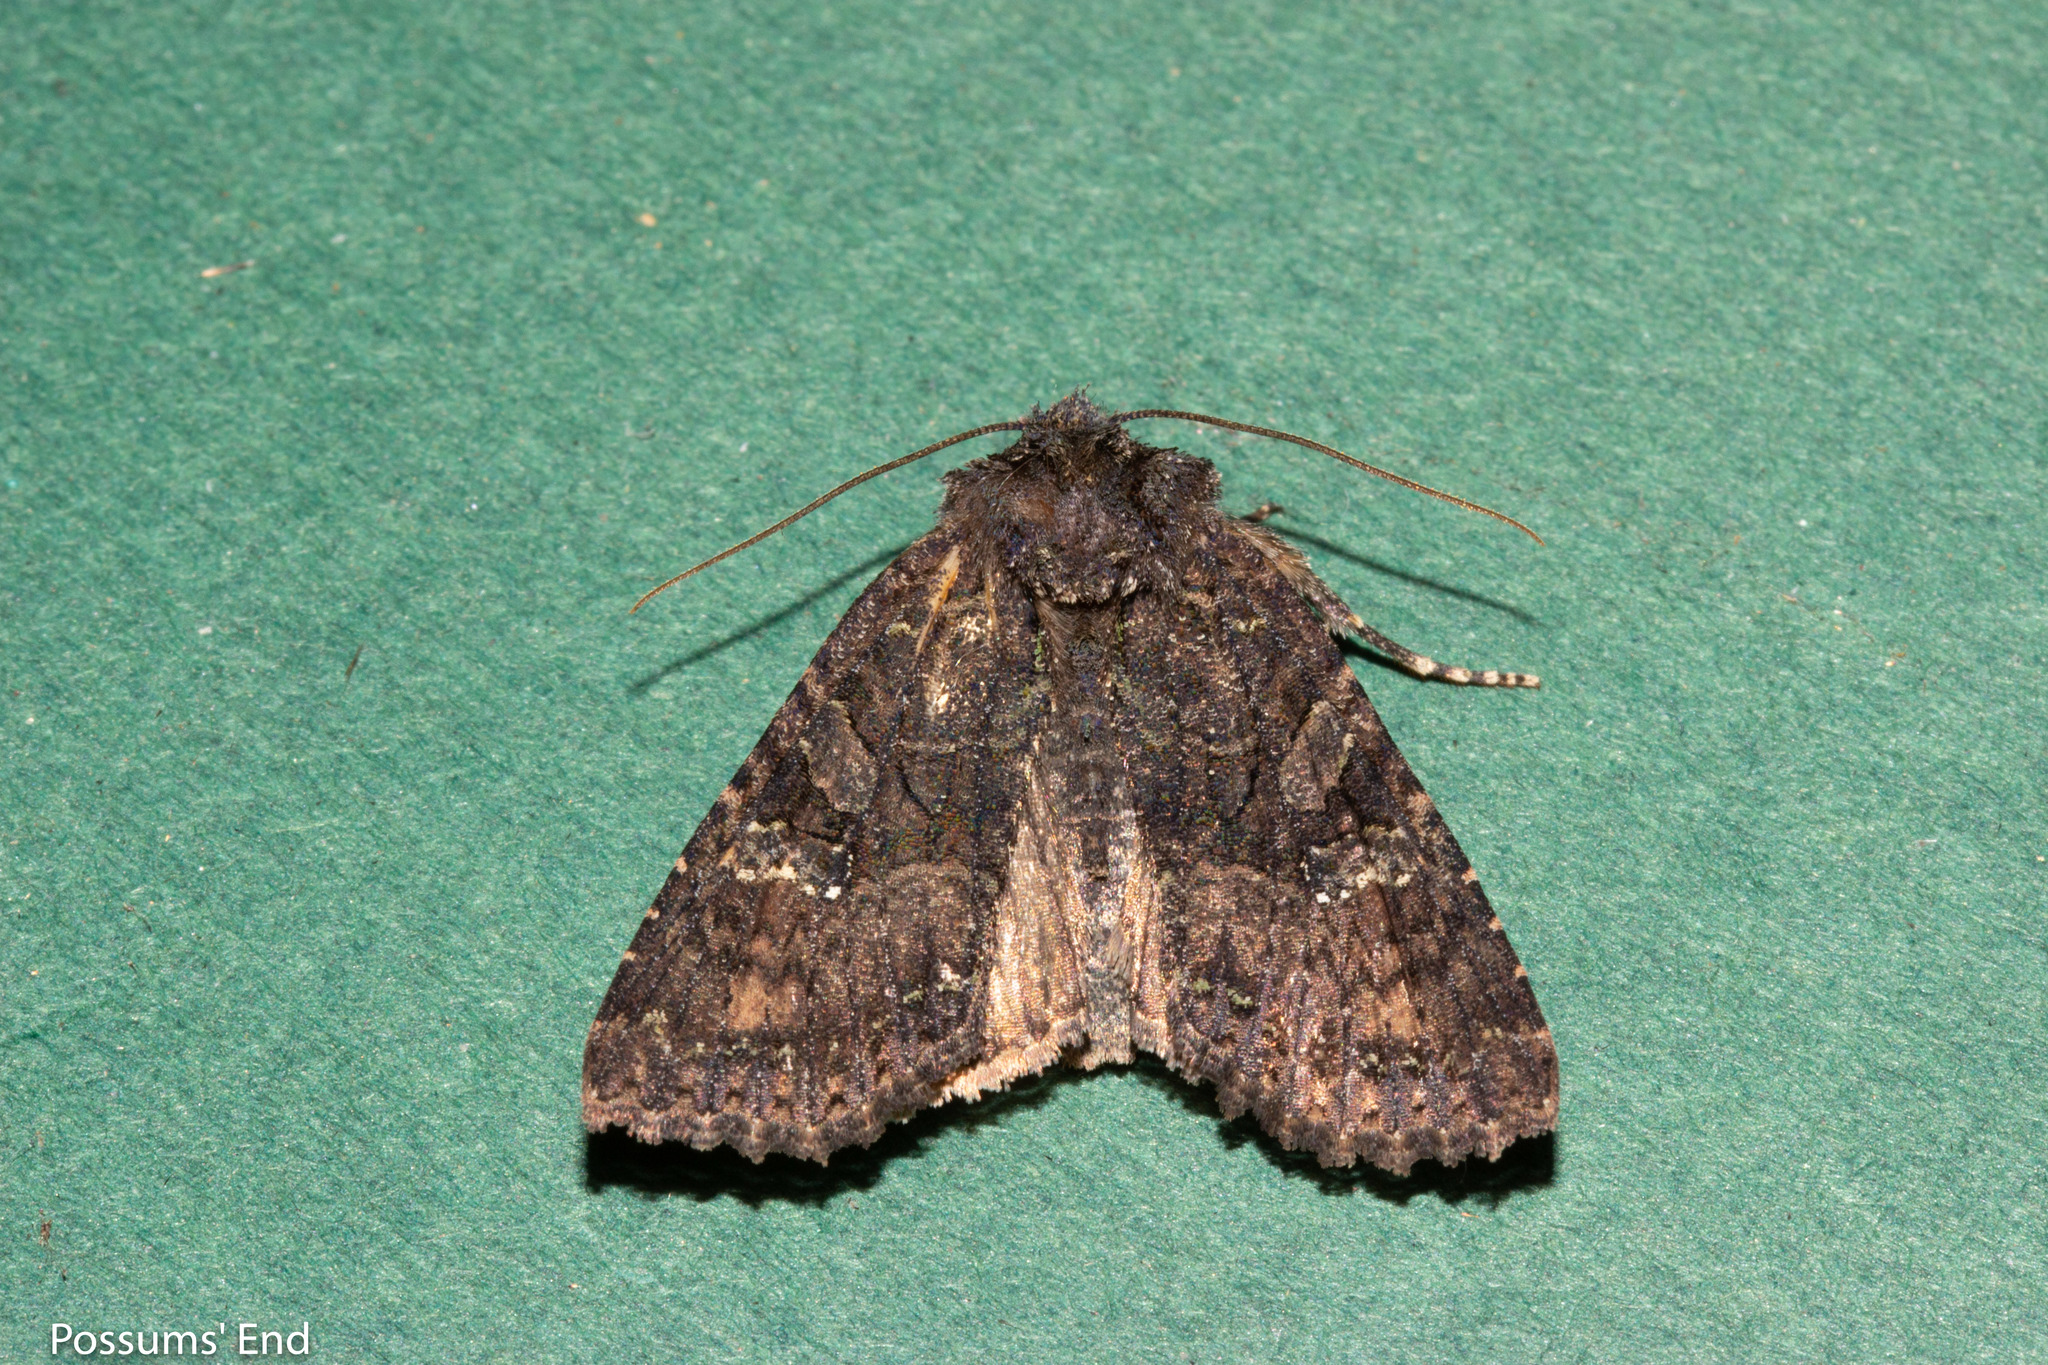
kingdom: Animalia
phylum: Arthropoda
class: Insecta
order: Lepidoptera
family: Noctuidae
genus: Meterana
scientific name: Meterana ochthistis
